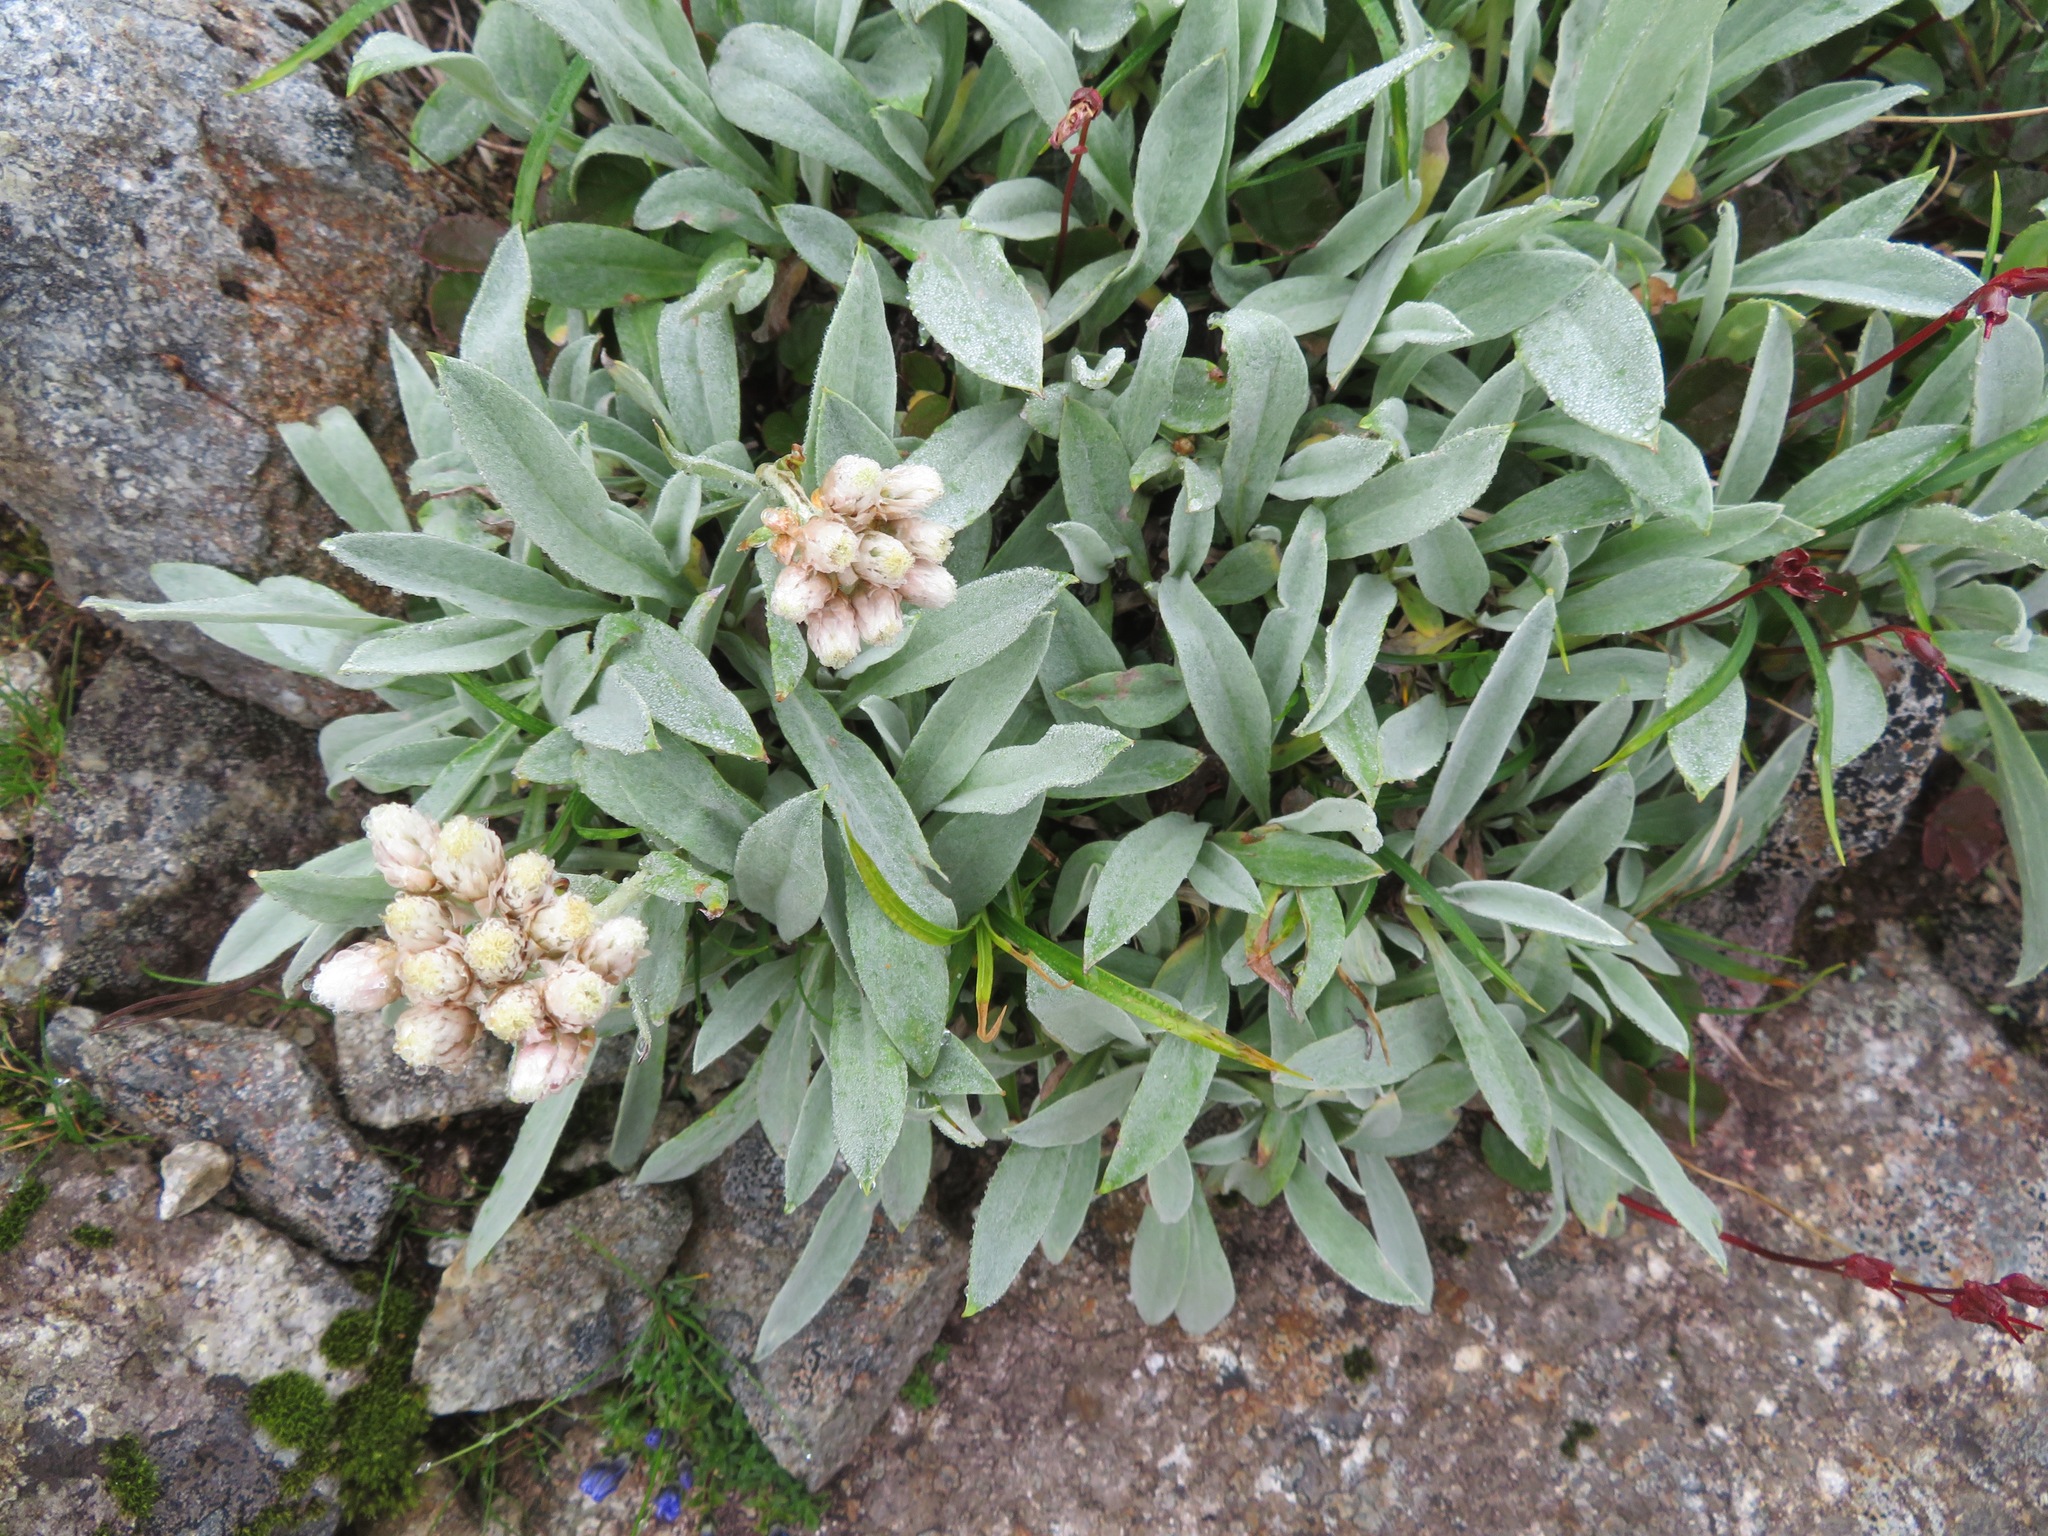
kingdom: Plantae
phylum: Tracheophyta
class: Magnoliopsida
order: Asterales
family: Asteraceae
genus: Anaphalis
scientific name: Anaphalis alpicola
